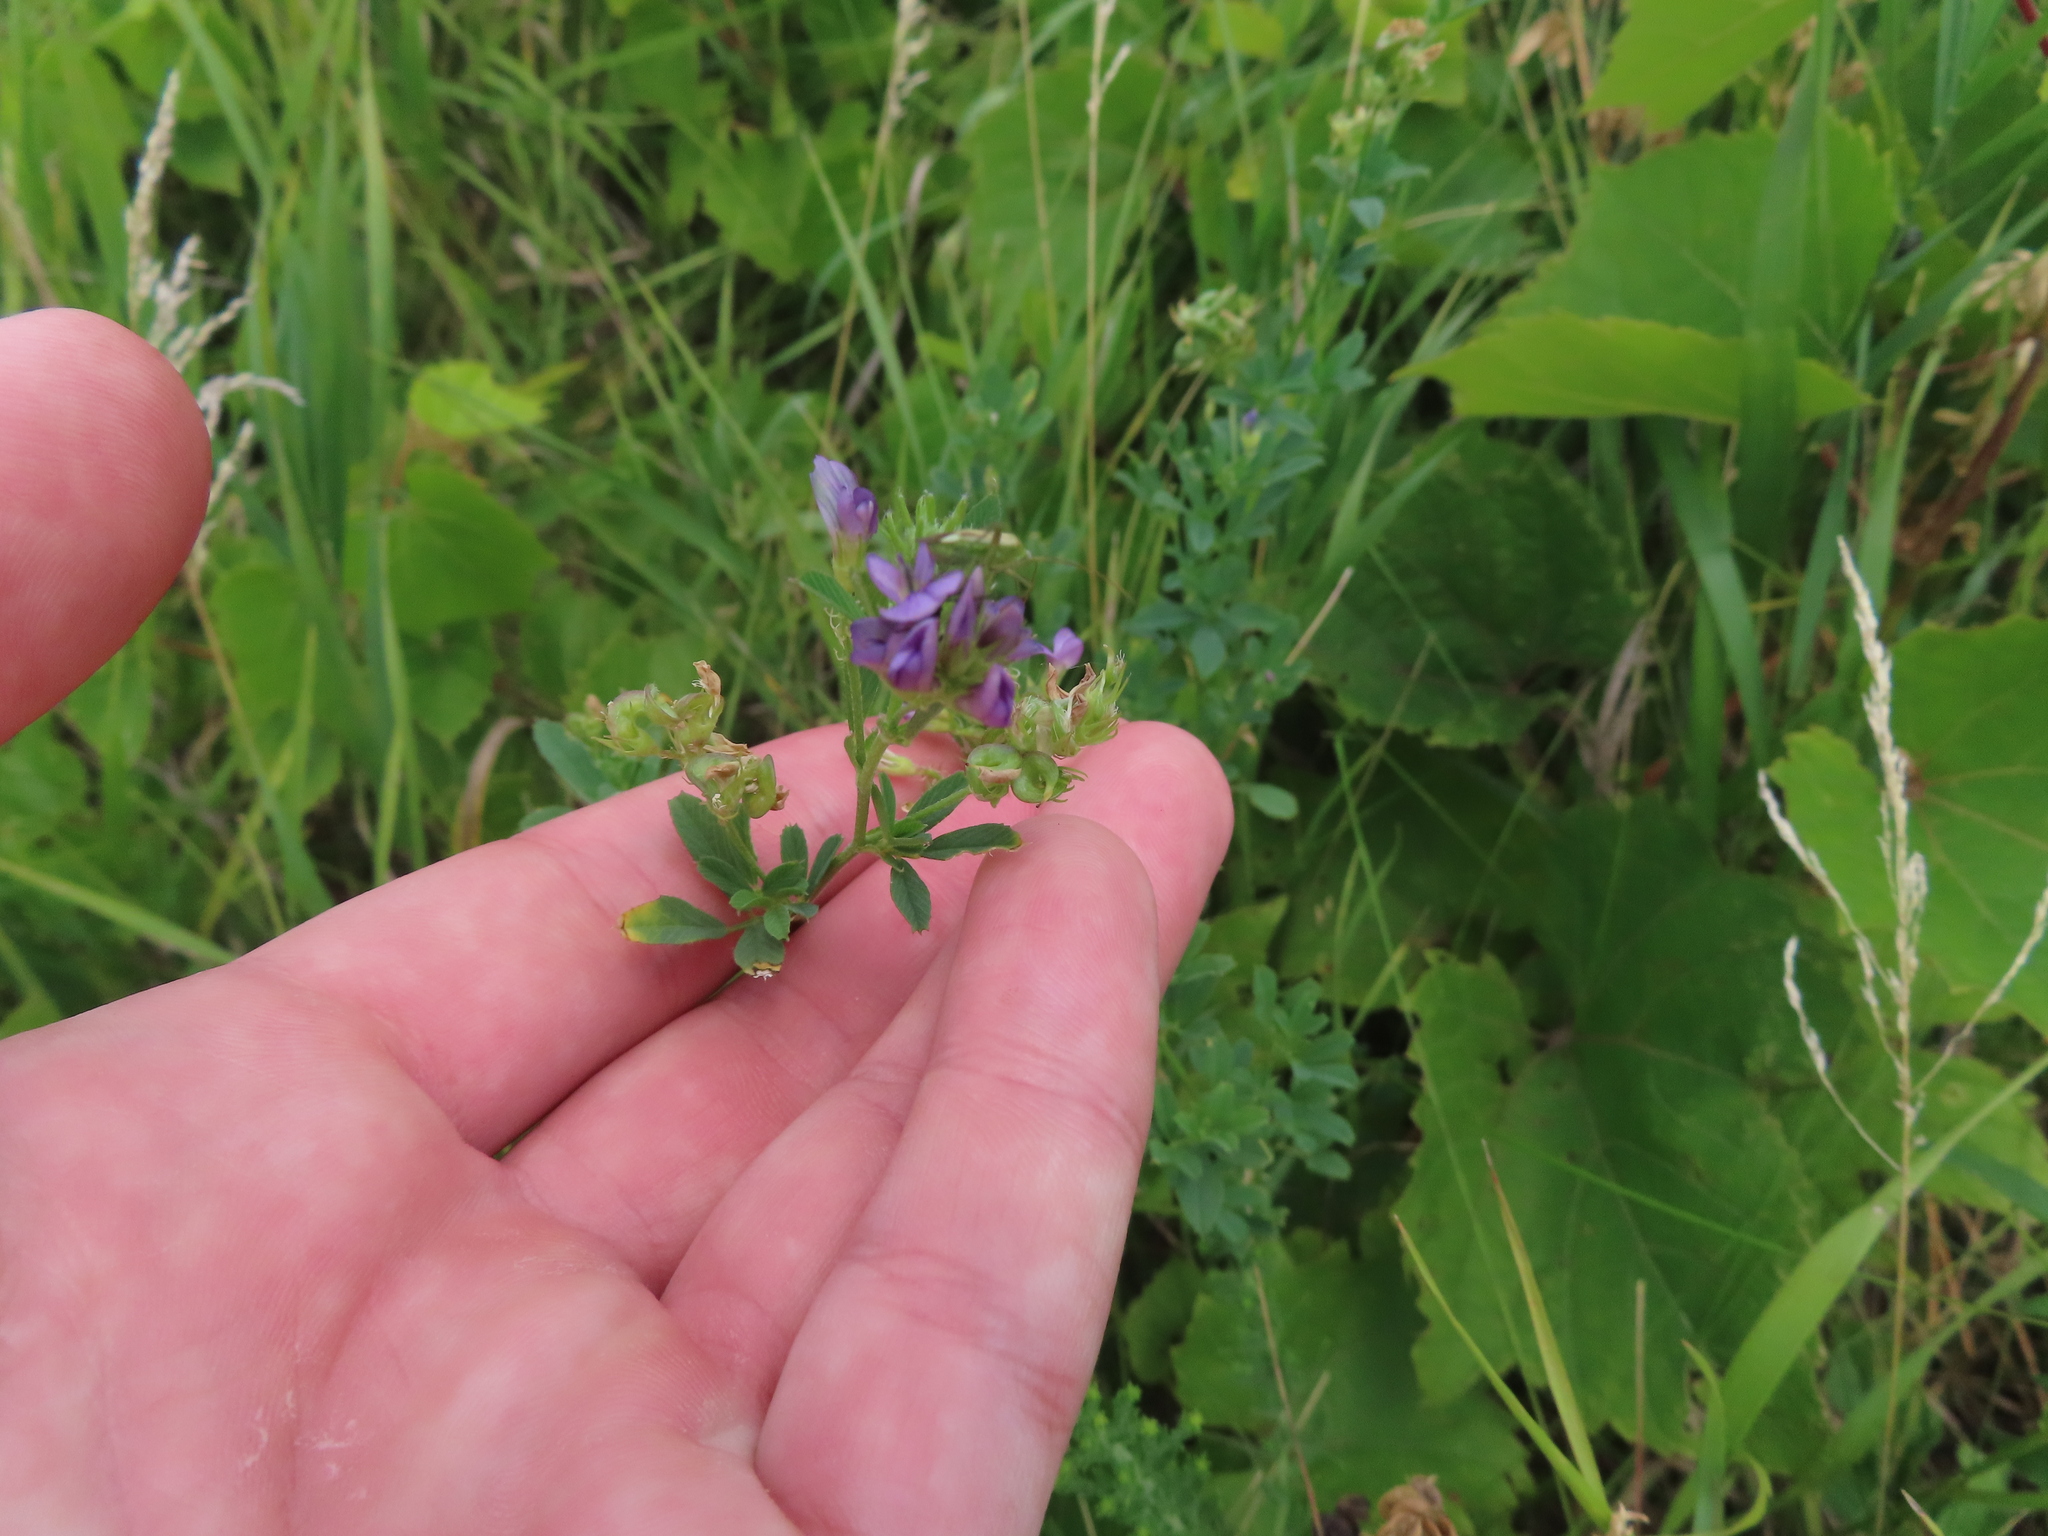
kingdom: Plantae
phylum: Tracheophyta
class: Magnoliopsida
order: Fabales
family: Fabaceae
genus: Medicago
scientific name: Medicago sativa
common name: Alfalfa
